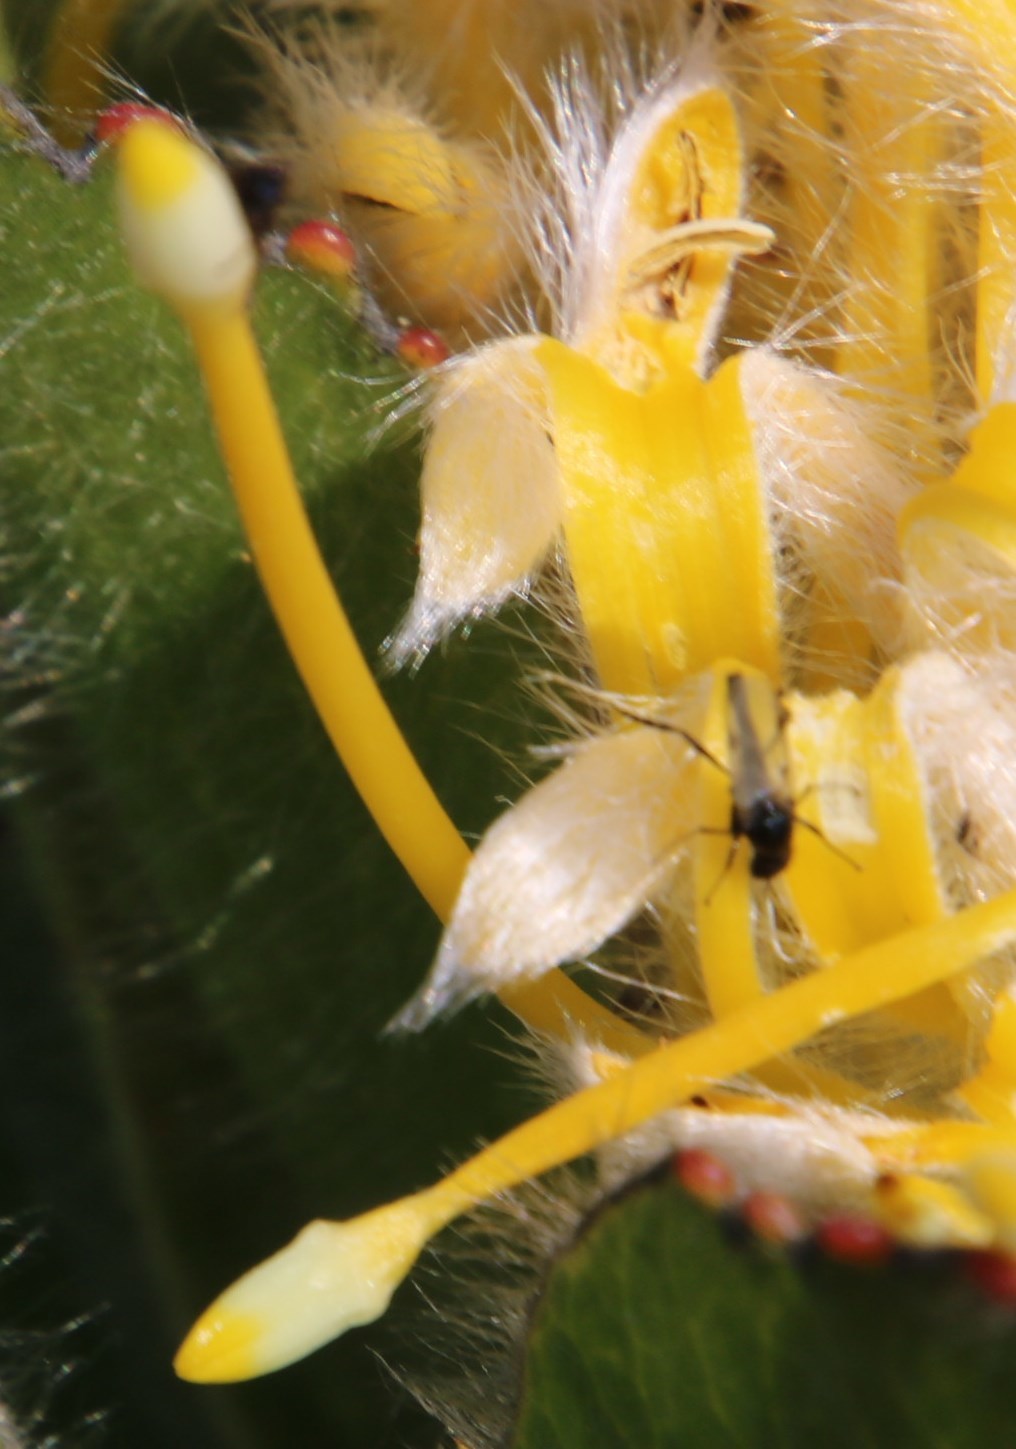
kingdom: Plantae
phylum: Tracheophyta
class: Magnoliopsida
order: Proteales
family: Proteaceae
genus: Leucospermum
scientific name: Leucospermum conocarpodendron
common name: Tree pincushion
